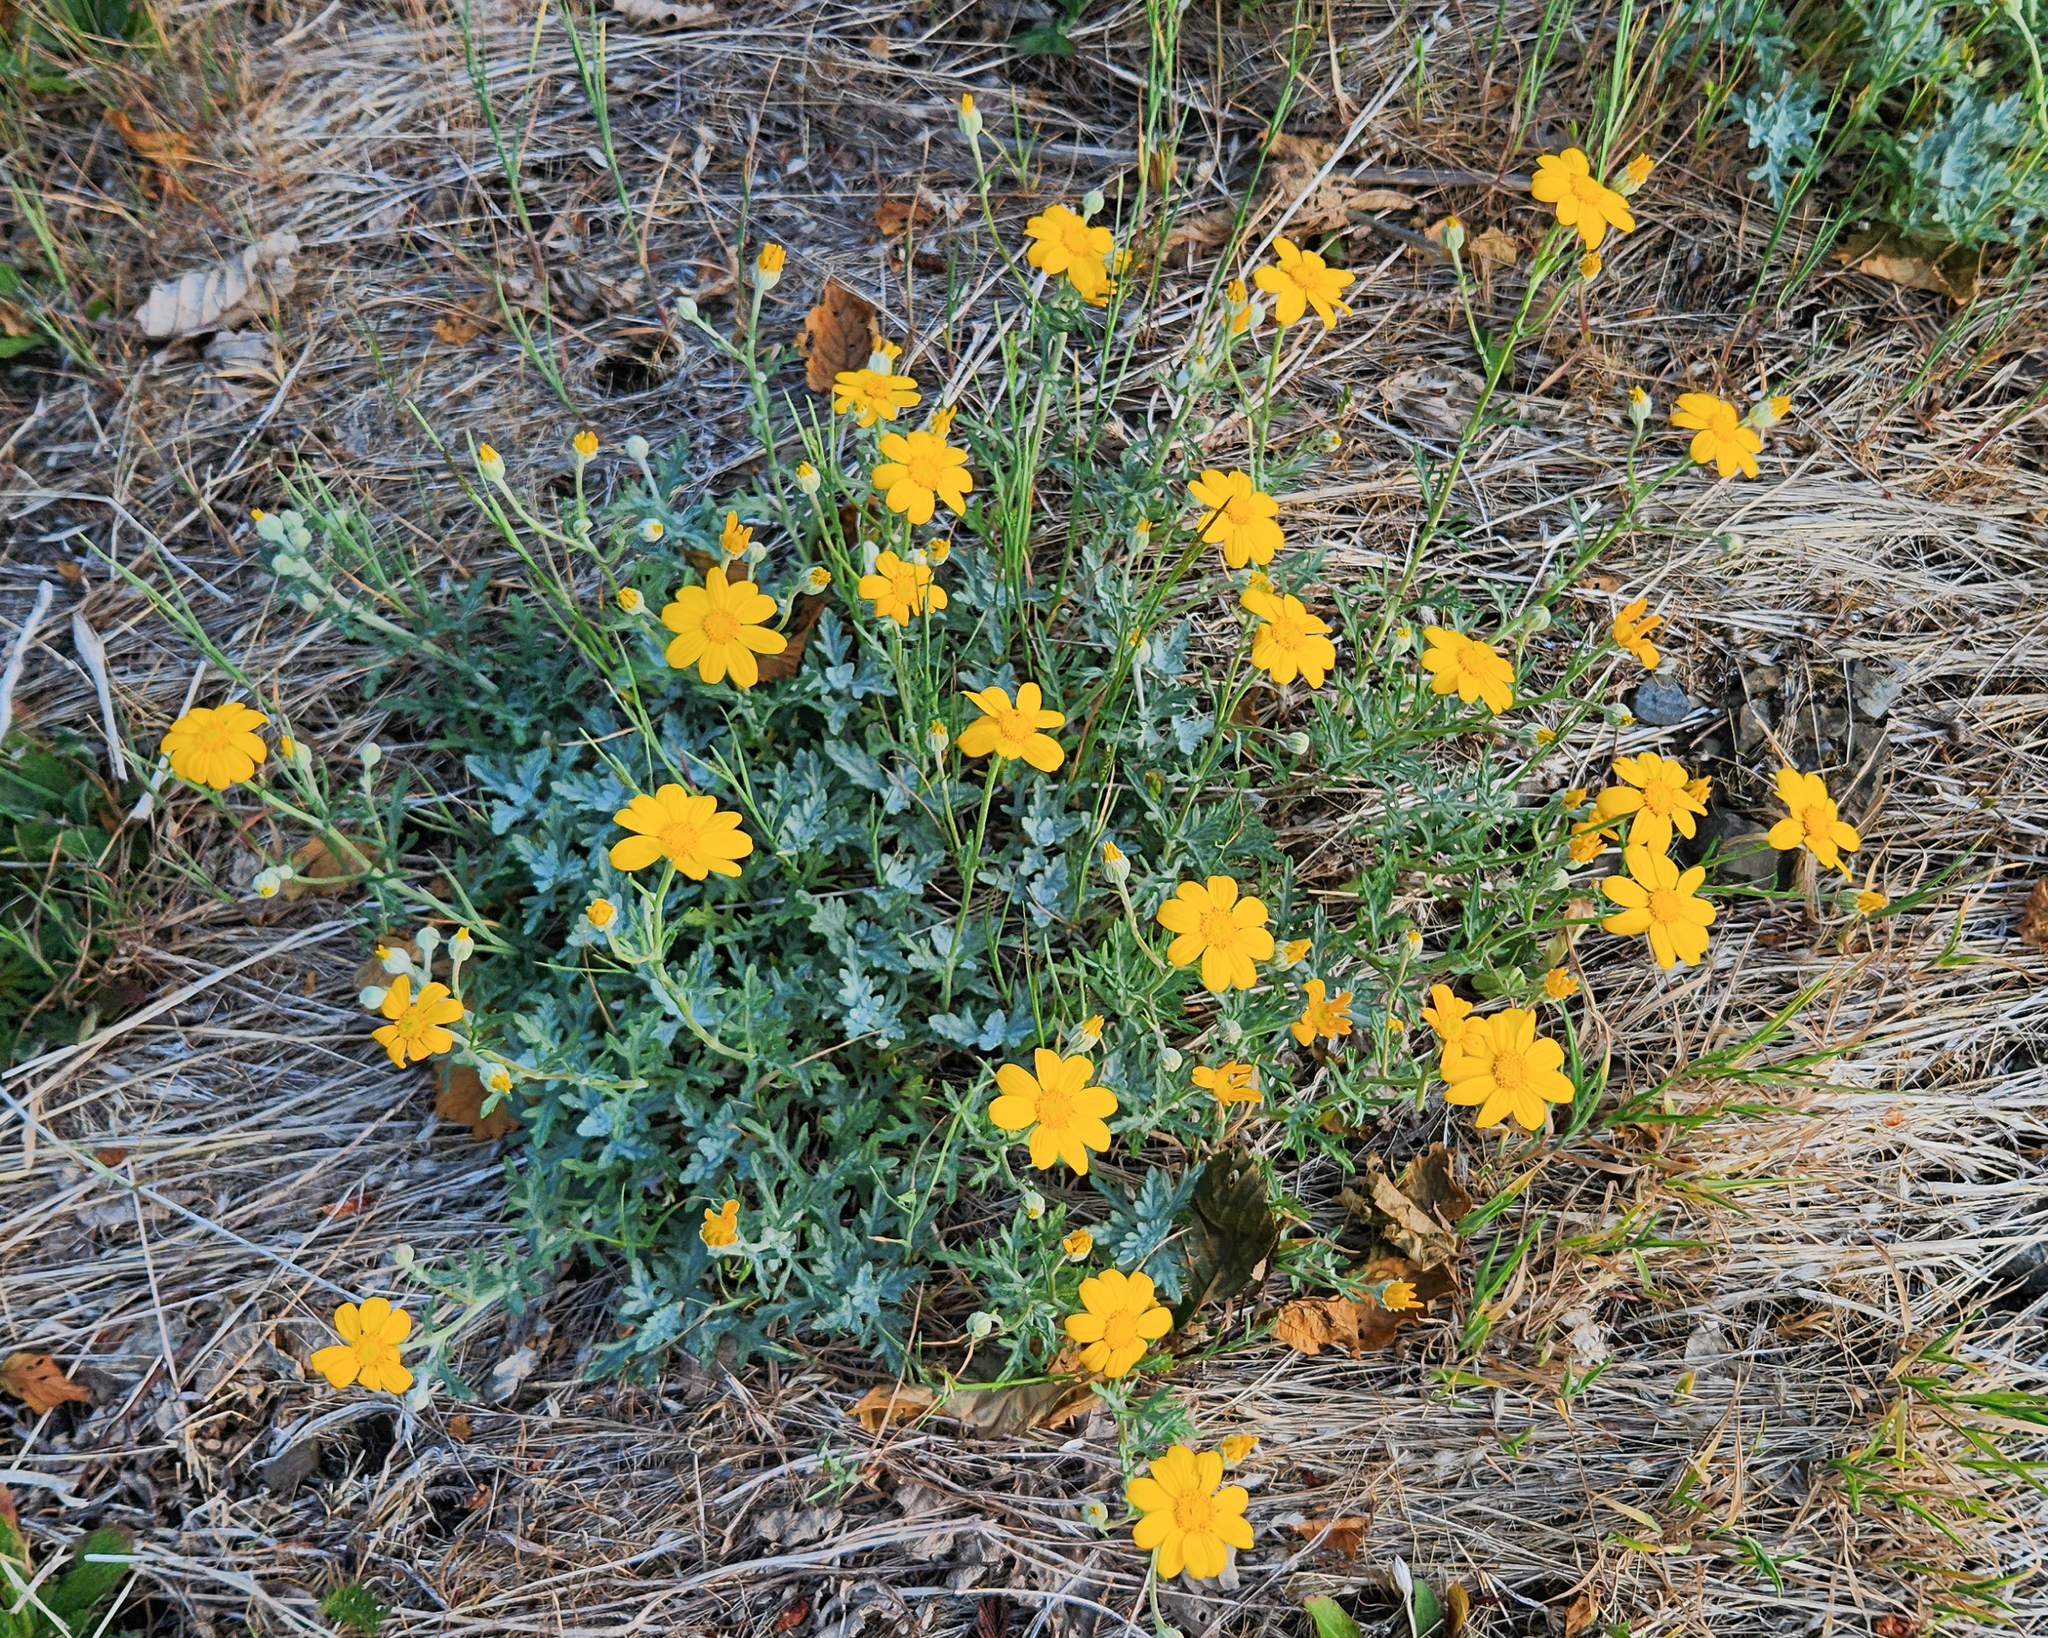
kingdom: Plantae
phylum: Tracheophyta
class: Magnoliopsida
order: Asterales
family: Asteraceae
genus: Eriophyllum
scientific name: Eriophyllum lanatum
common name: Common woolly-sunflower
